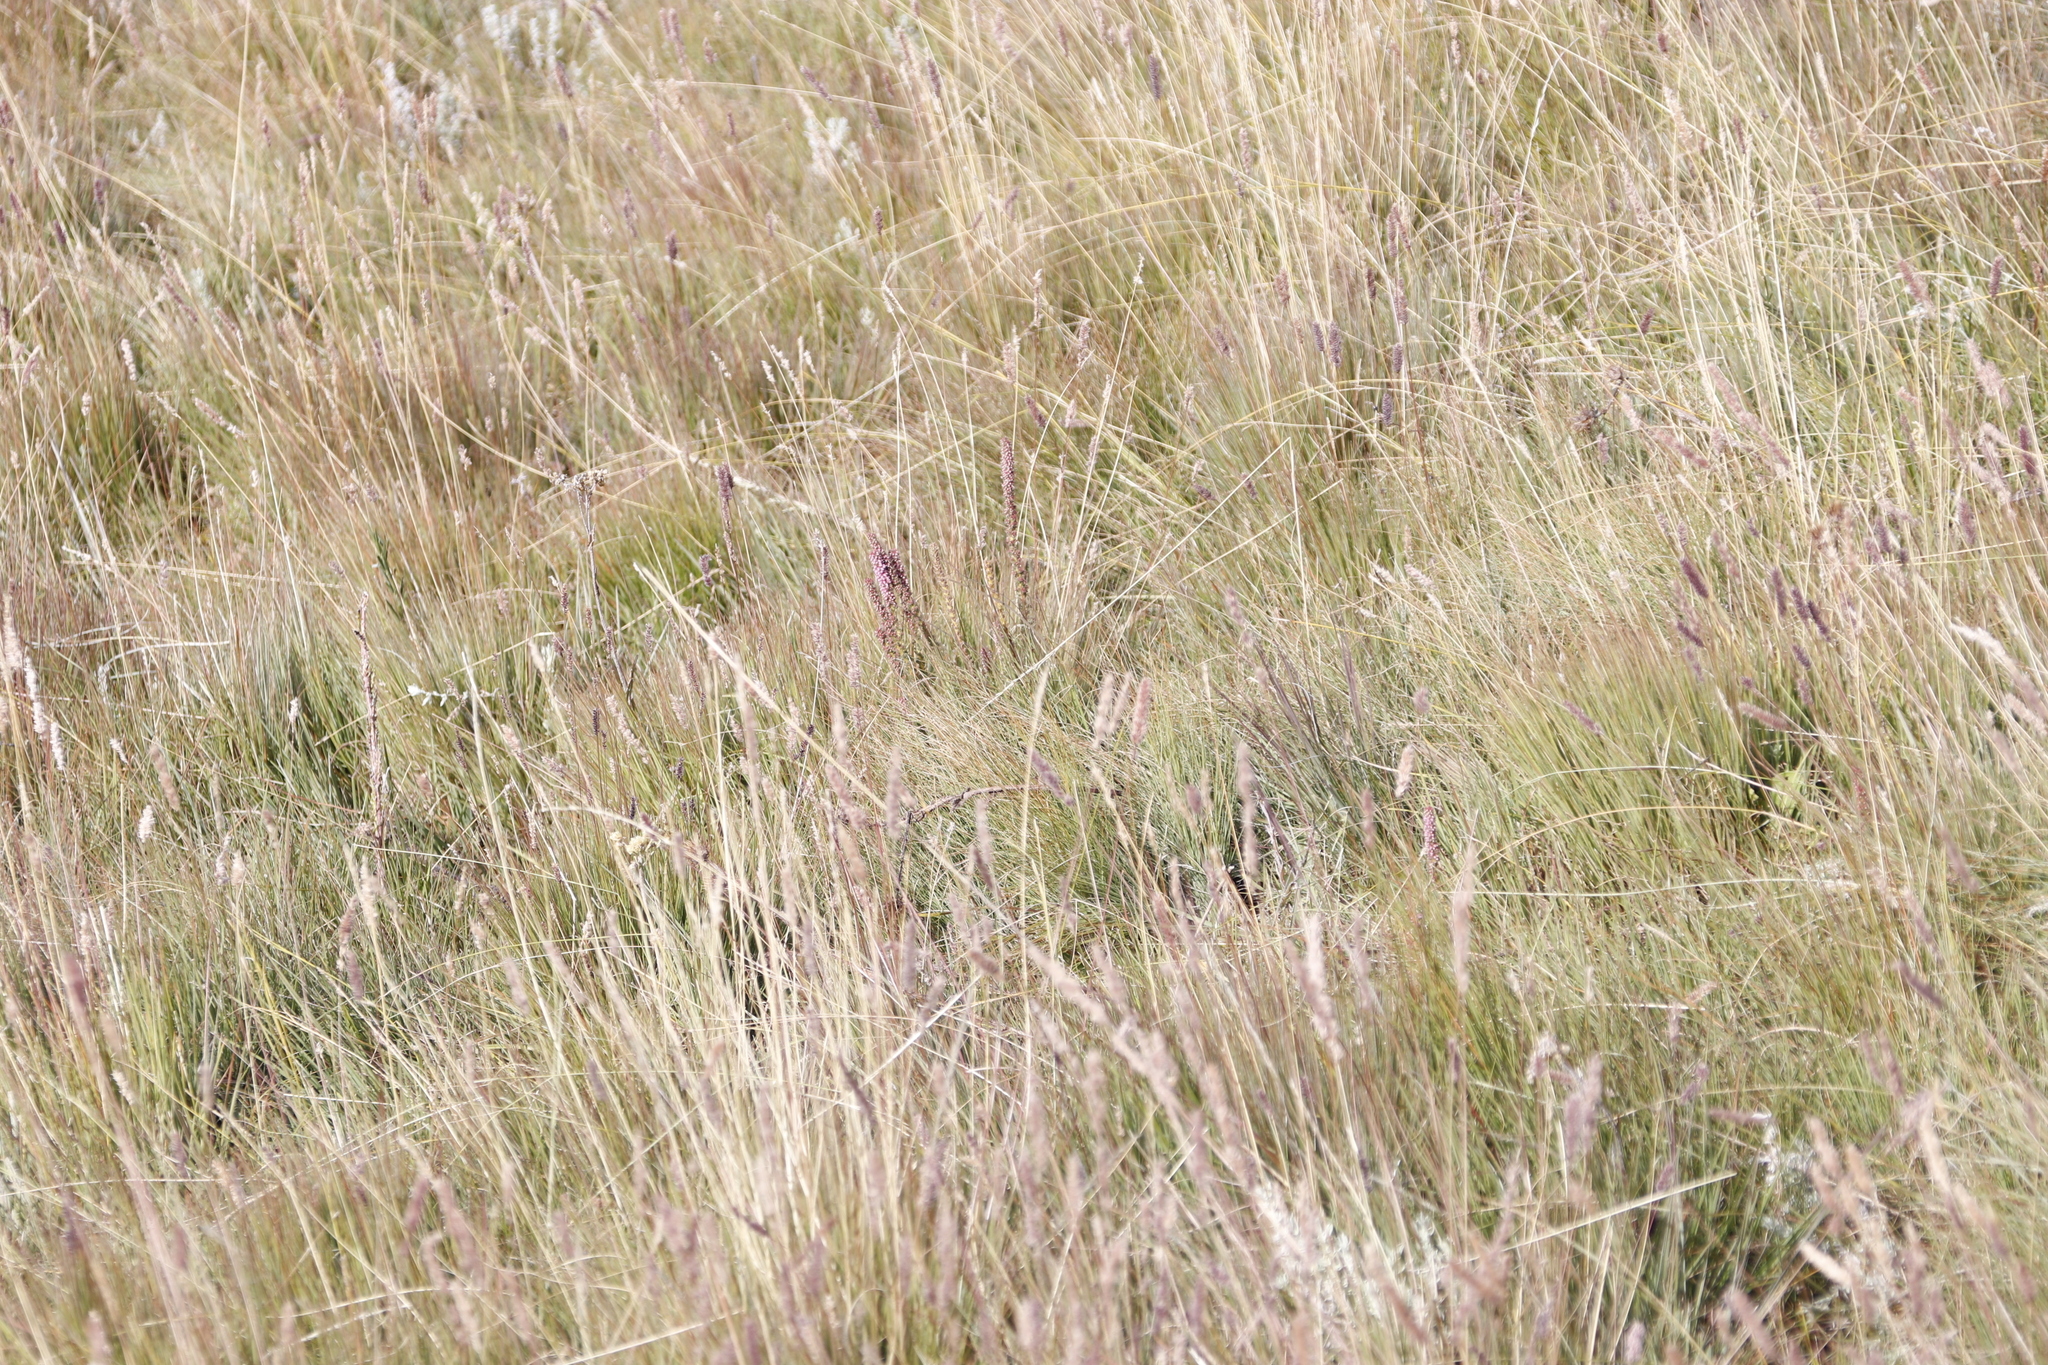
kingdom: Plantae
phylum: Tracheophyta
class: Liliopsida
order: Poales
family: Poaceae
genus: Stiburus
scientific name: Stiburus alopecuroides
